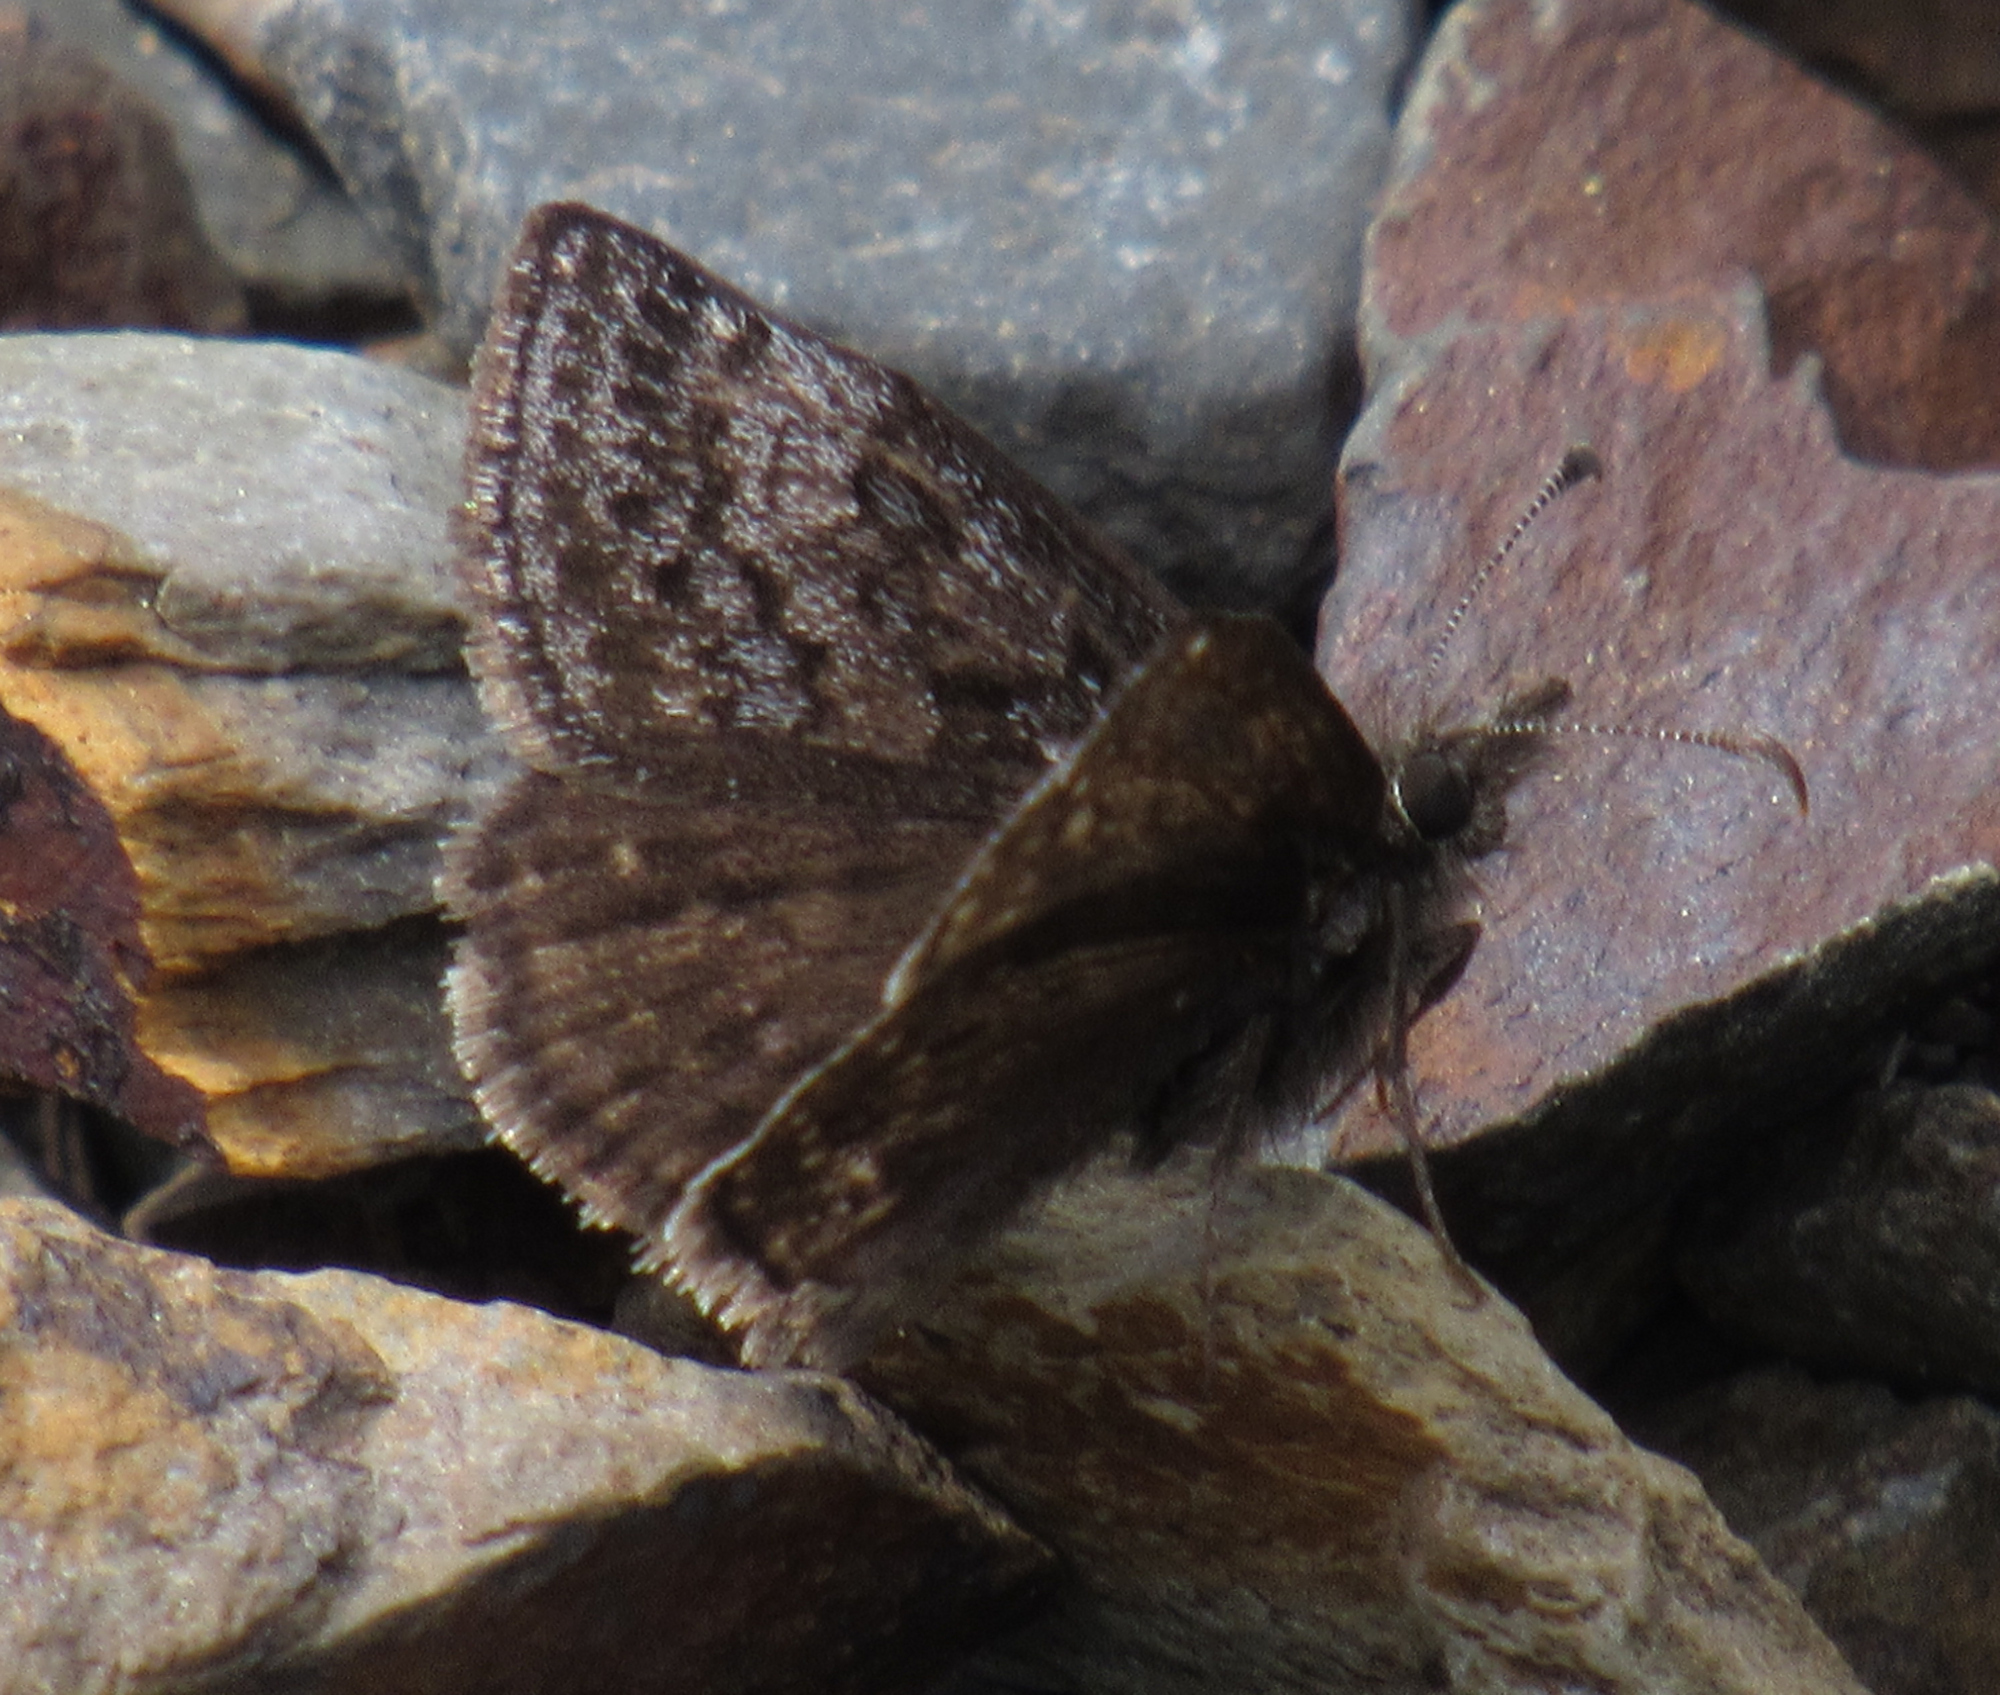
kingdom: Animalia
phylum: Arthropoda
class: Insecta
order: Lepidoptera
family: Hesperiidae
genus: Erynnis
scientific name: Erynnis icelus
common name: Dreamy duskywing
